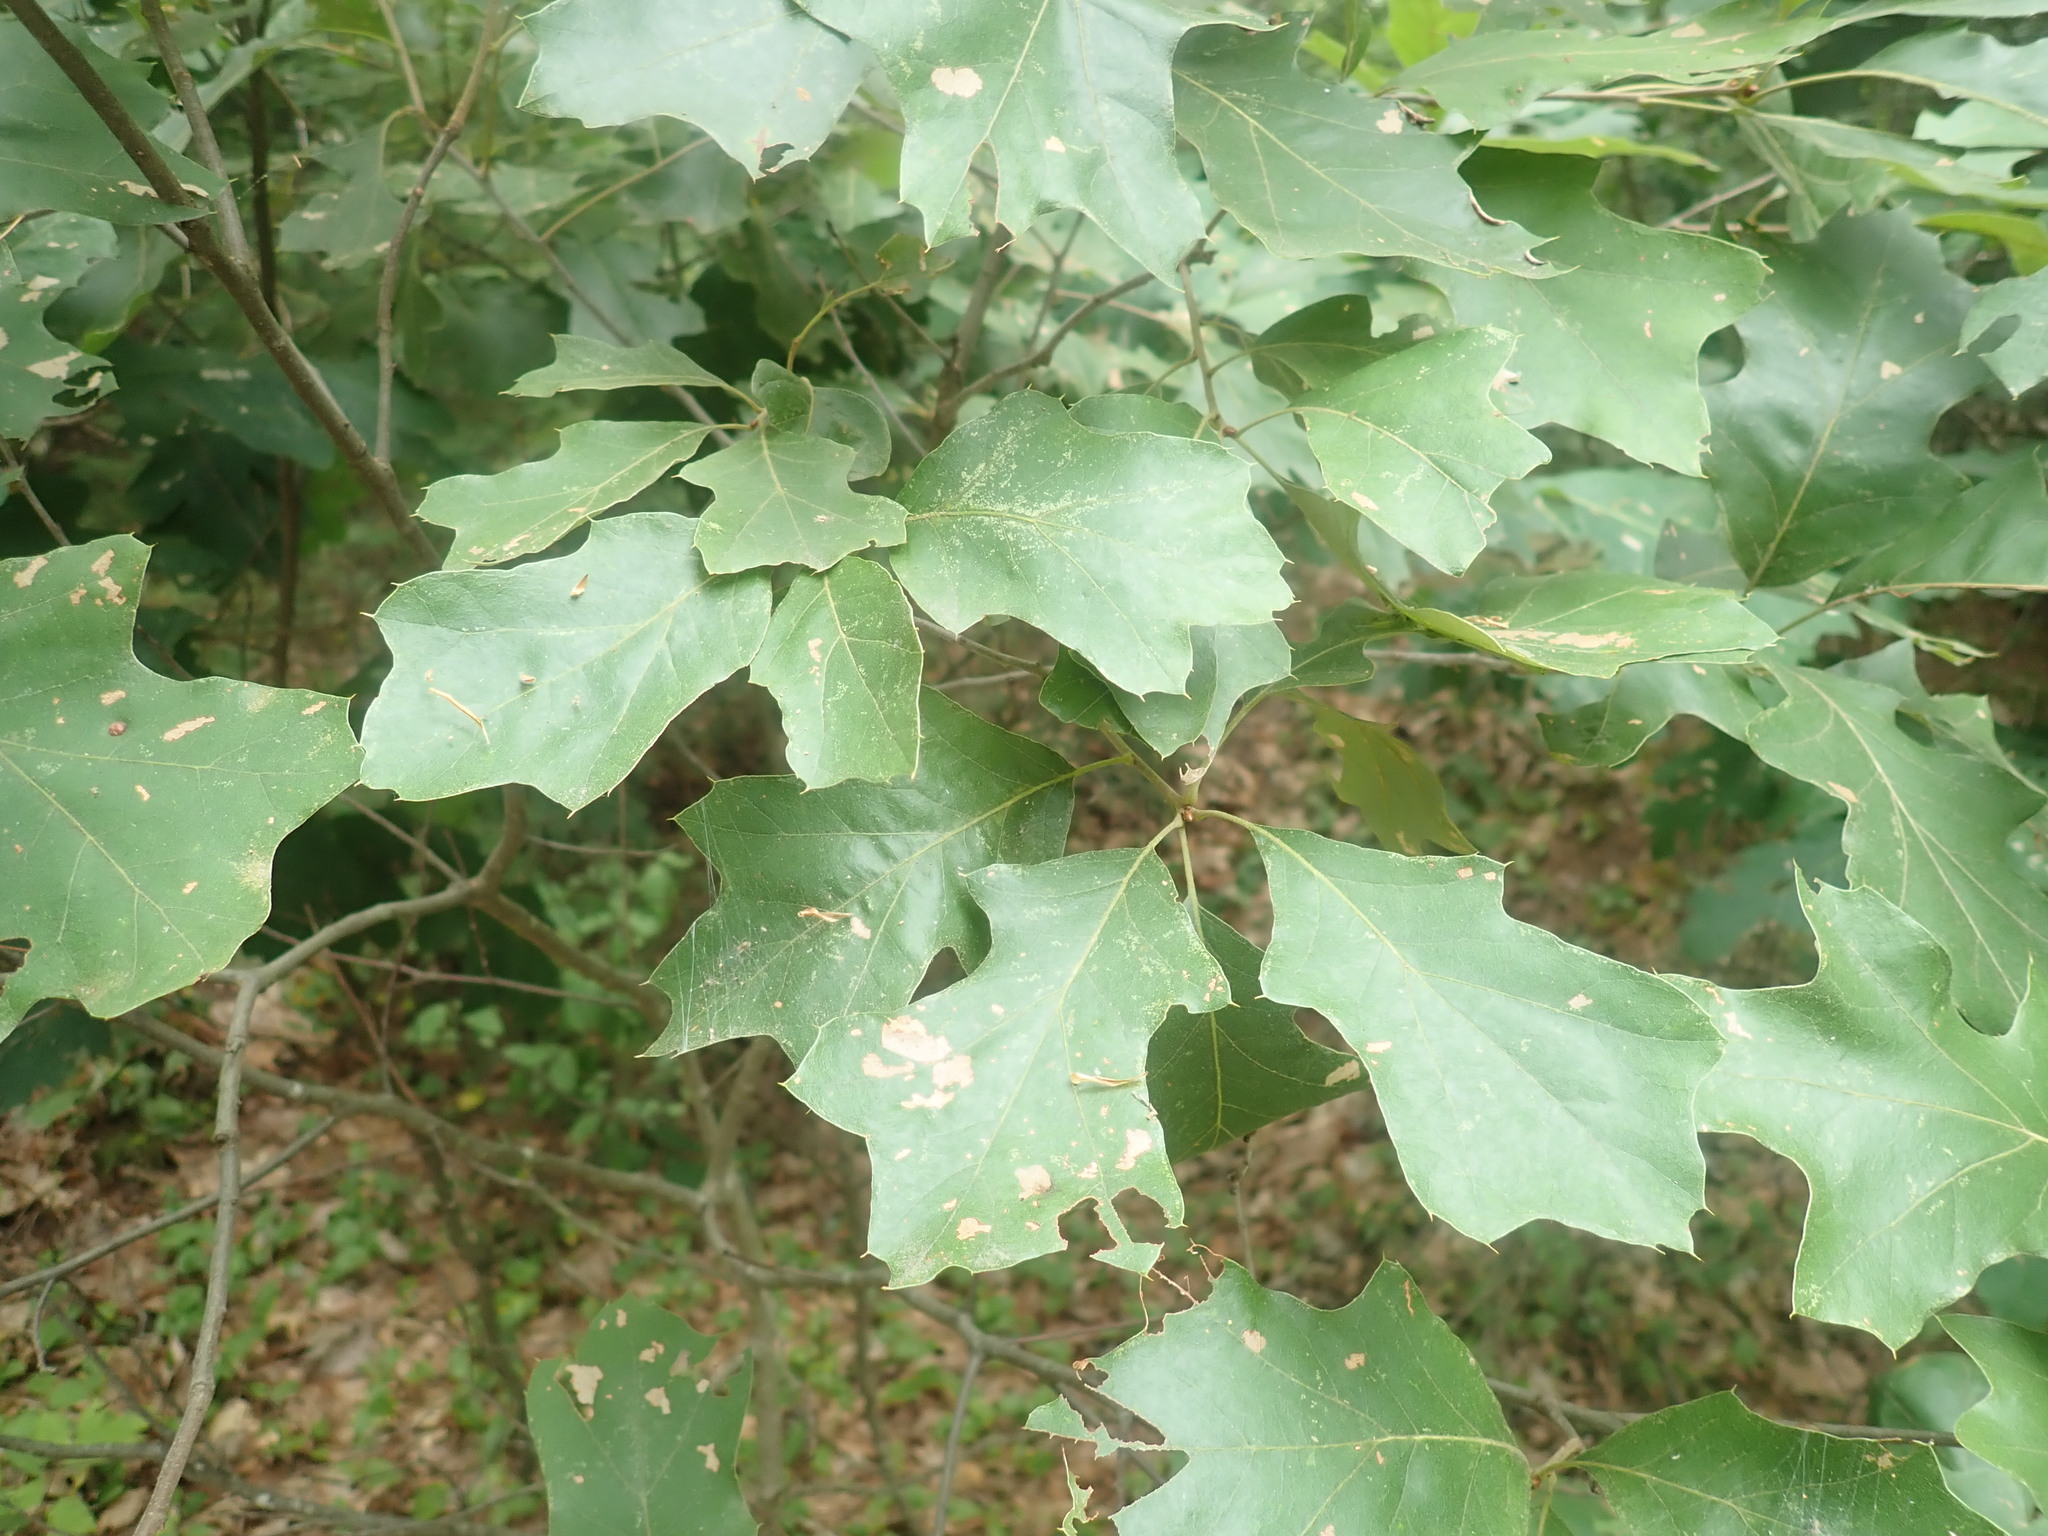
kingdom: Plantae
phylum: Tracheophyta
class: Magnoliopsida
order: Fagales
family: Fagaceae
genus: Quercus
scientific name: Quercus ilicifolia
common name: Bear oak
